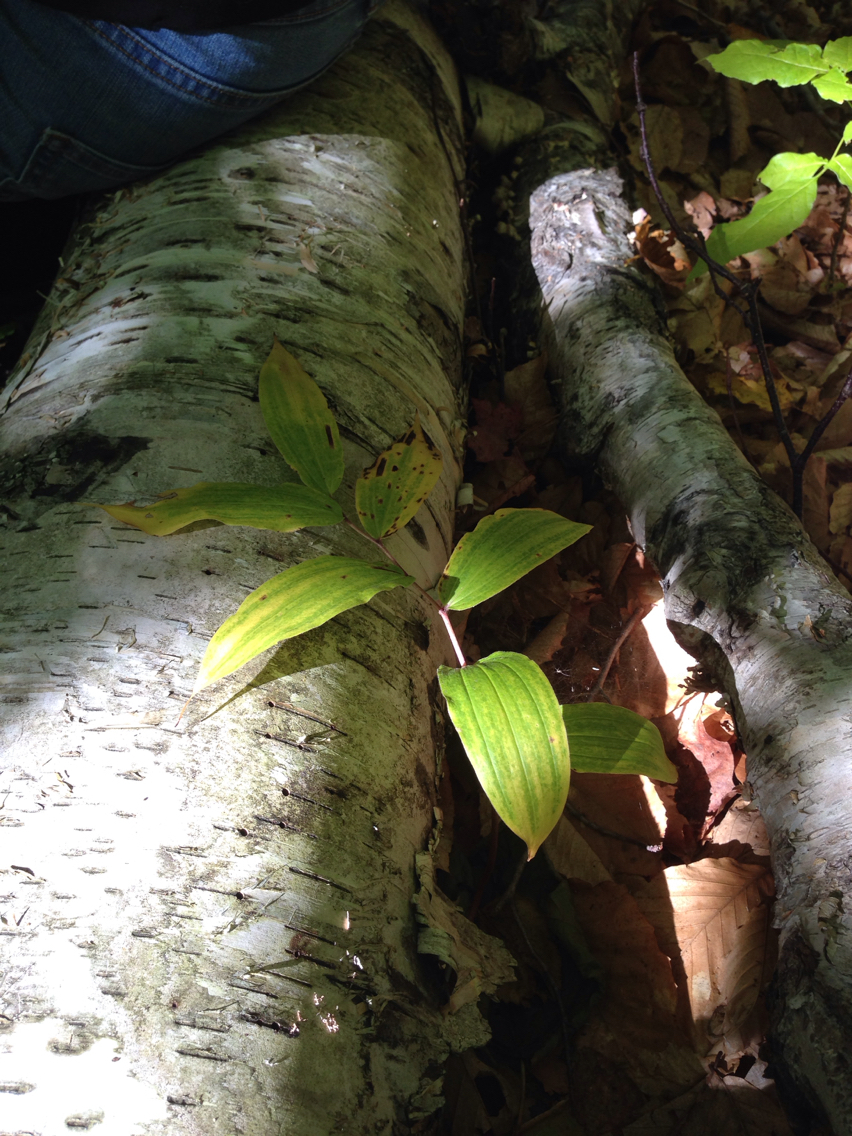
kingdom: Plantae
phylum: Tracheophyta
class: Liliopsida
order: Asparagales
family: Asparagaceae
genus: Maianthemum
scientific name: Maianthemum racemosum
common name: False spikenard
